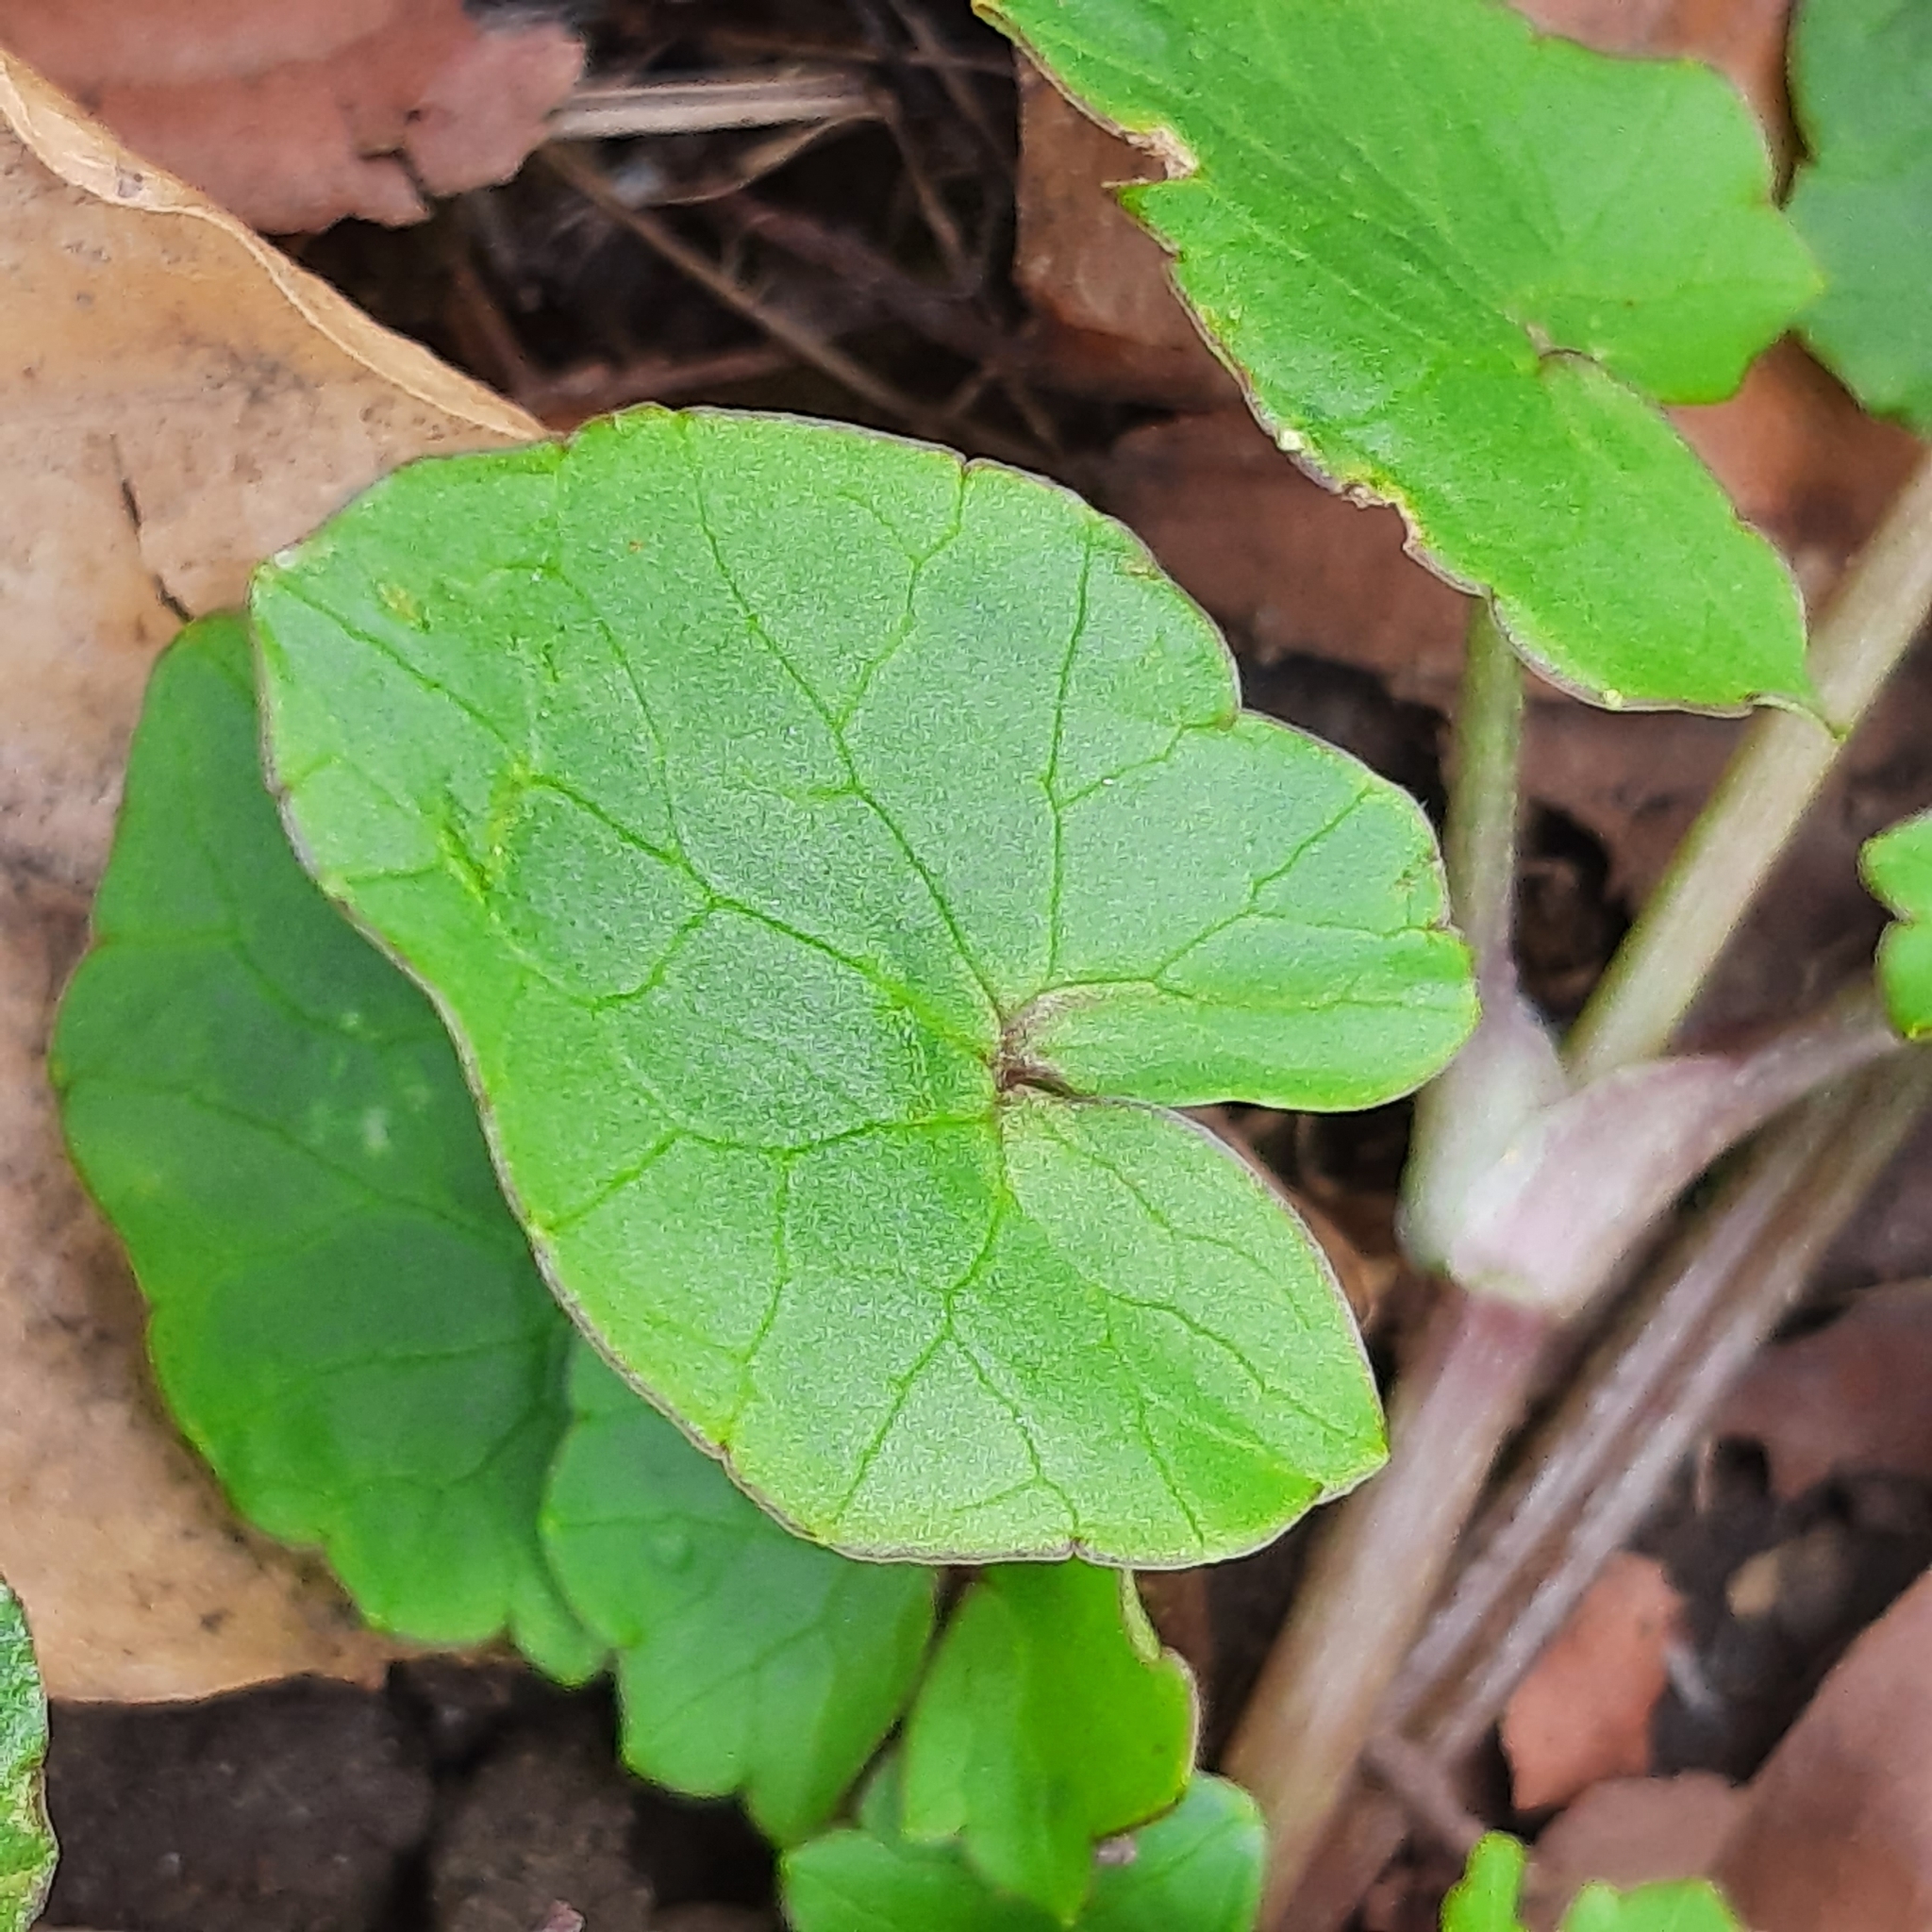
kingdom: Plantae
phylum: Tracheophyta
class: Magnoliopsida
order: Ranunculales
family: Ranunculaceae
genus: Ficaria
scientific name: Ficaria verna
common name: Lesser celandine
